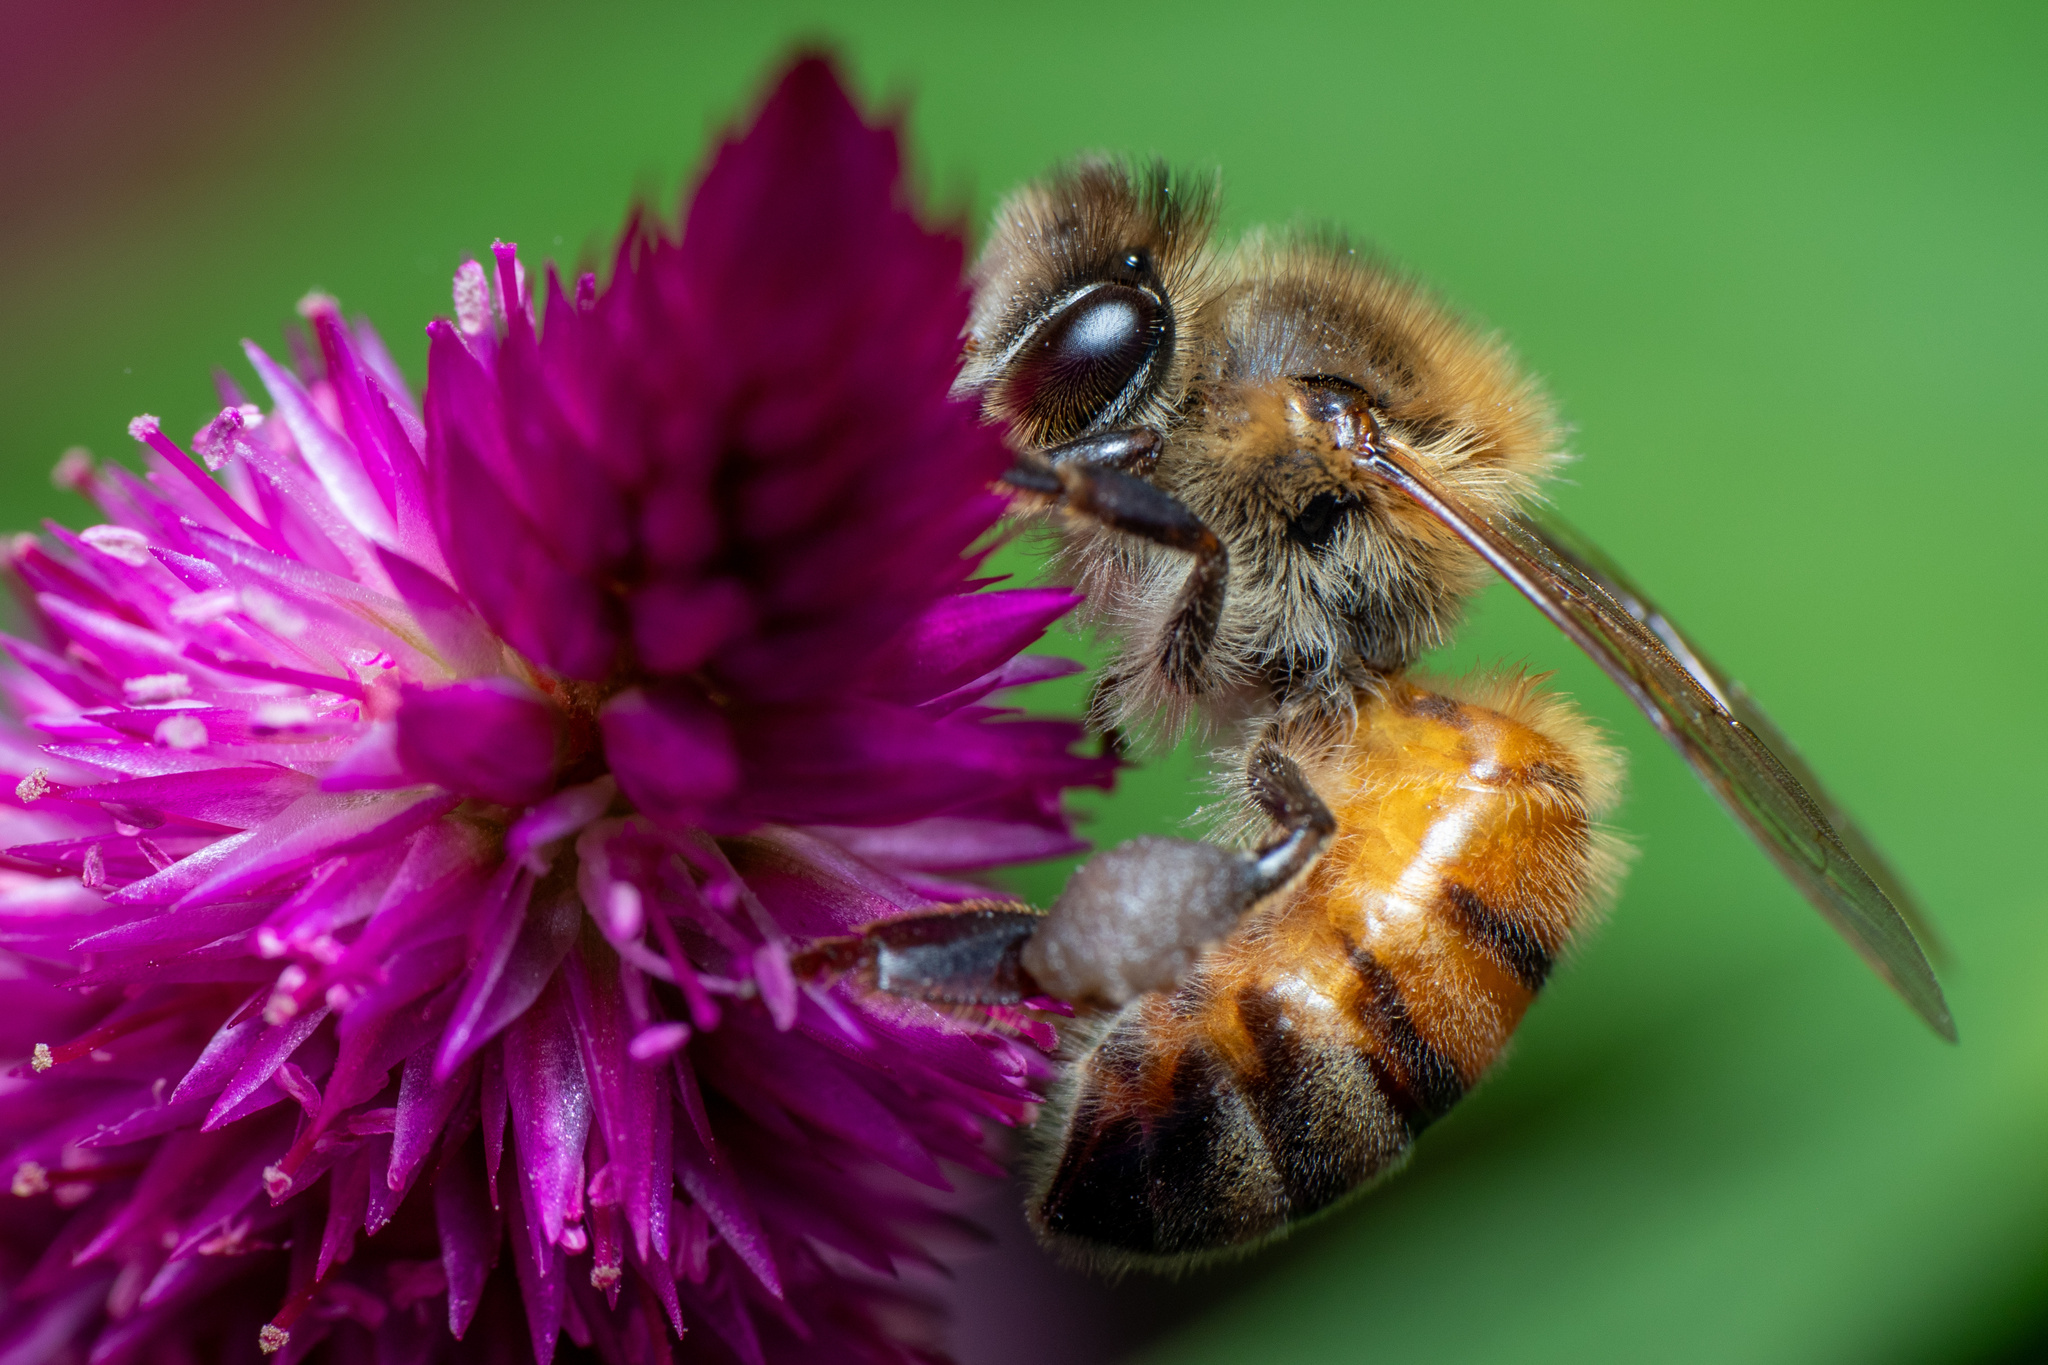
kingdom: Animalia
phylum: Arthropoda
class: Insecta
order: Hymenoptera
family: Apidae
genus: Apis
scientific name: Apis mellifera
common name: Honey bee
